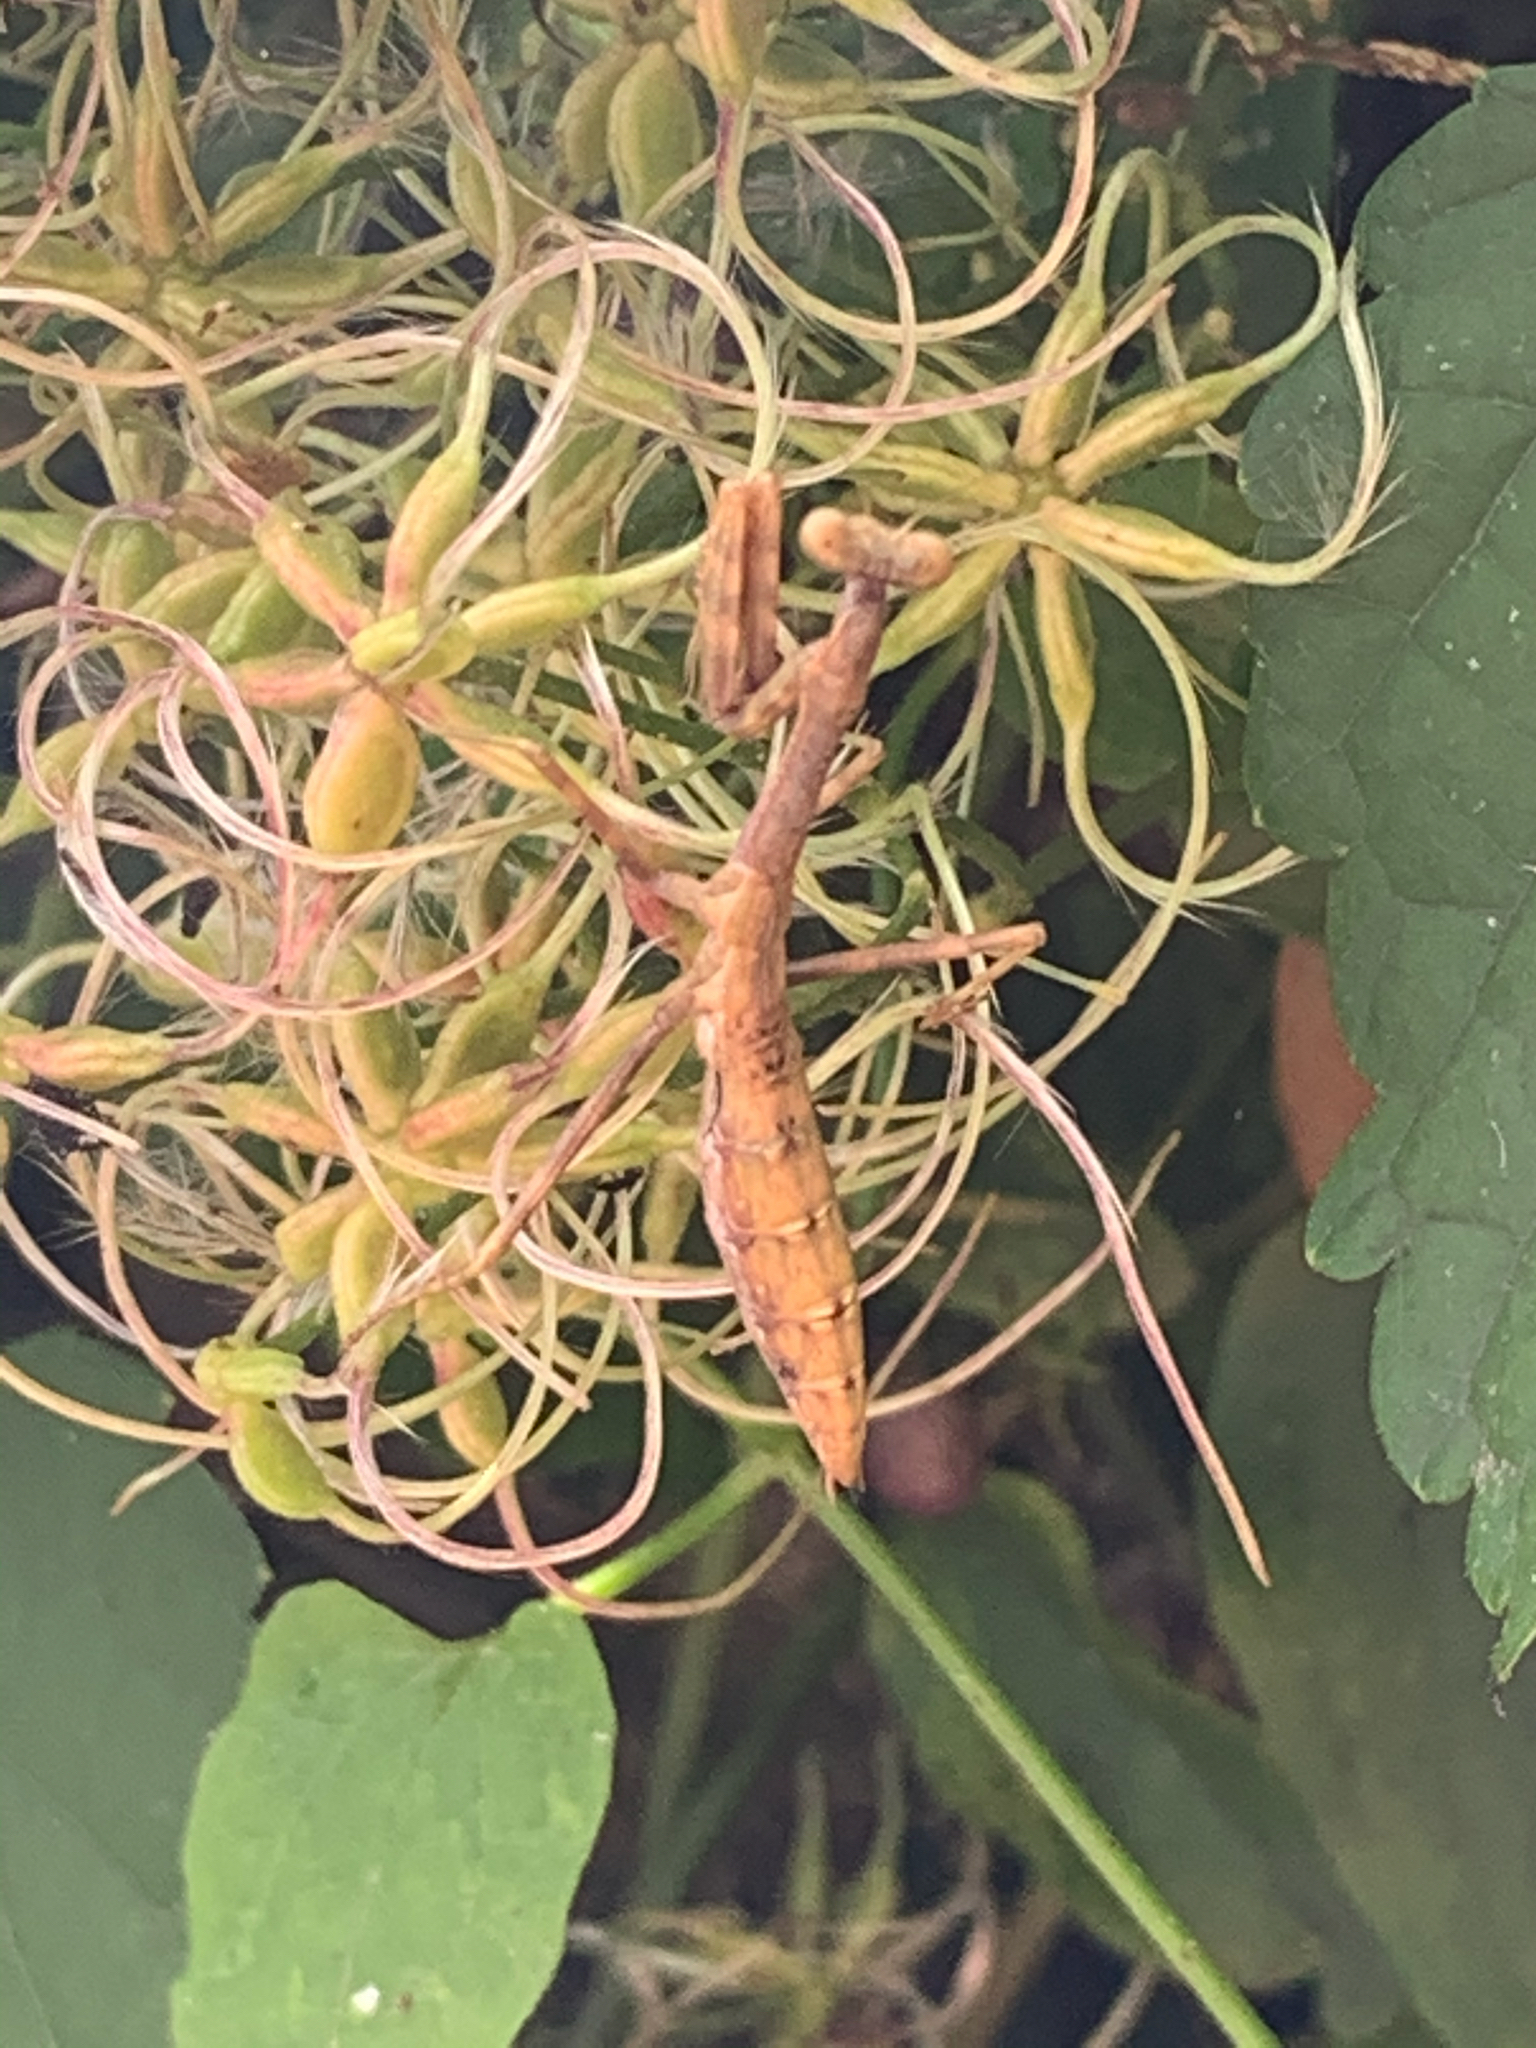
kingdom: Animalia
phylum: Arthropoda
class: Insecta
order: Mantodea
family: Mantidae
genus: Stagmomantis
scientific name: Stagmomantis carolina
